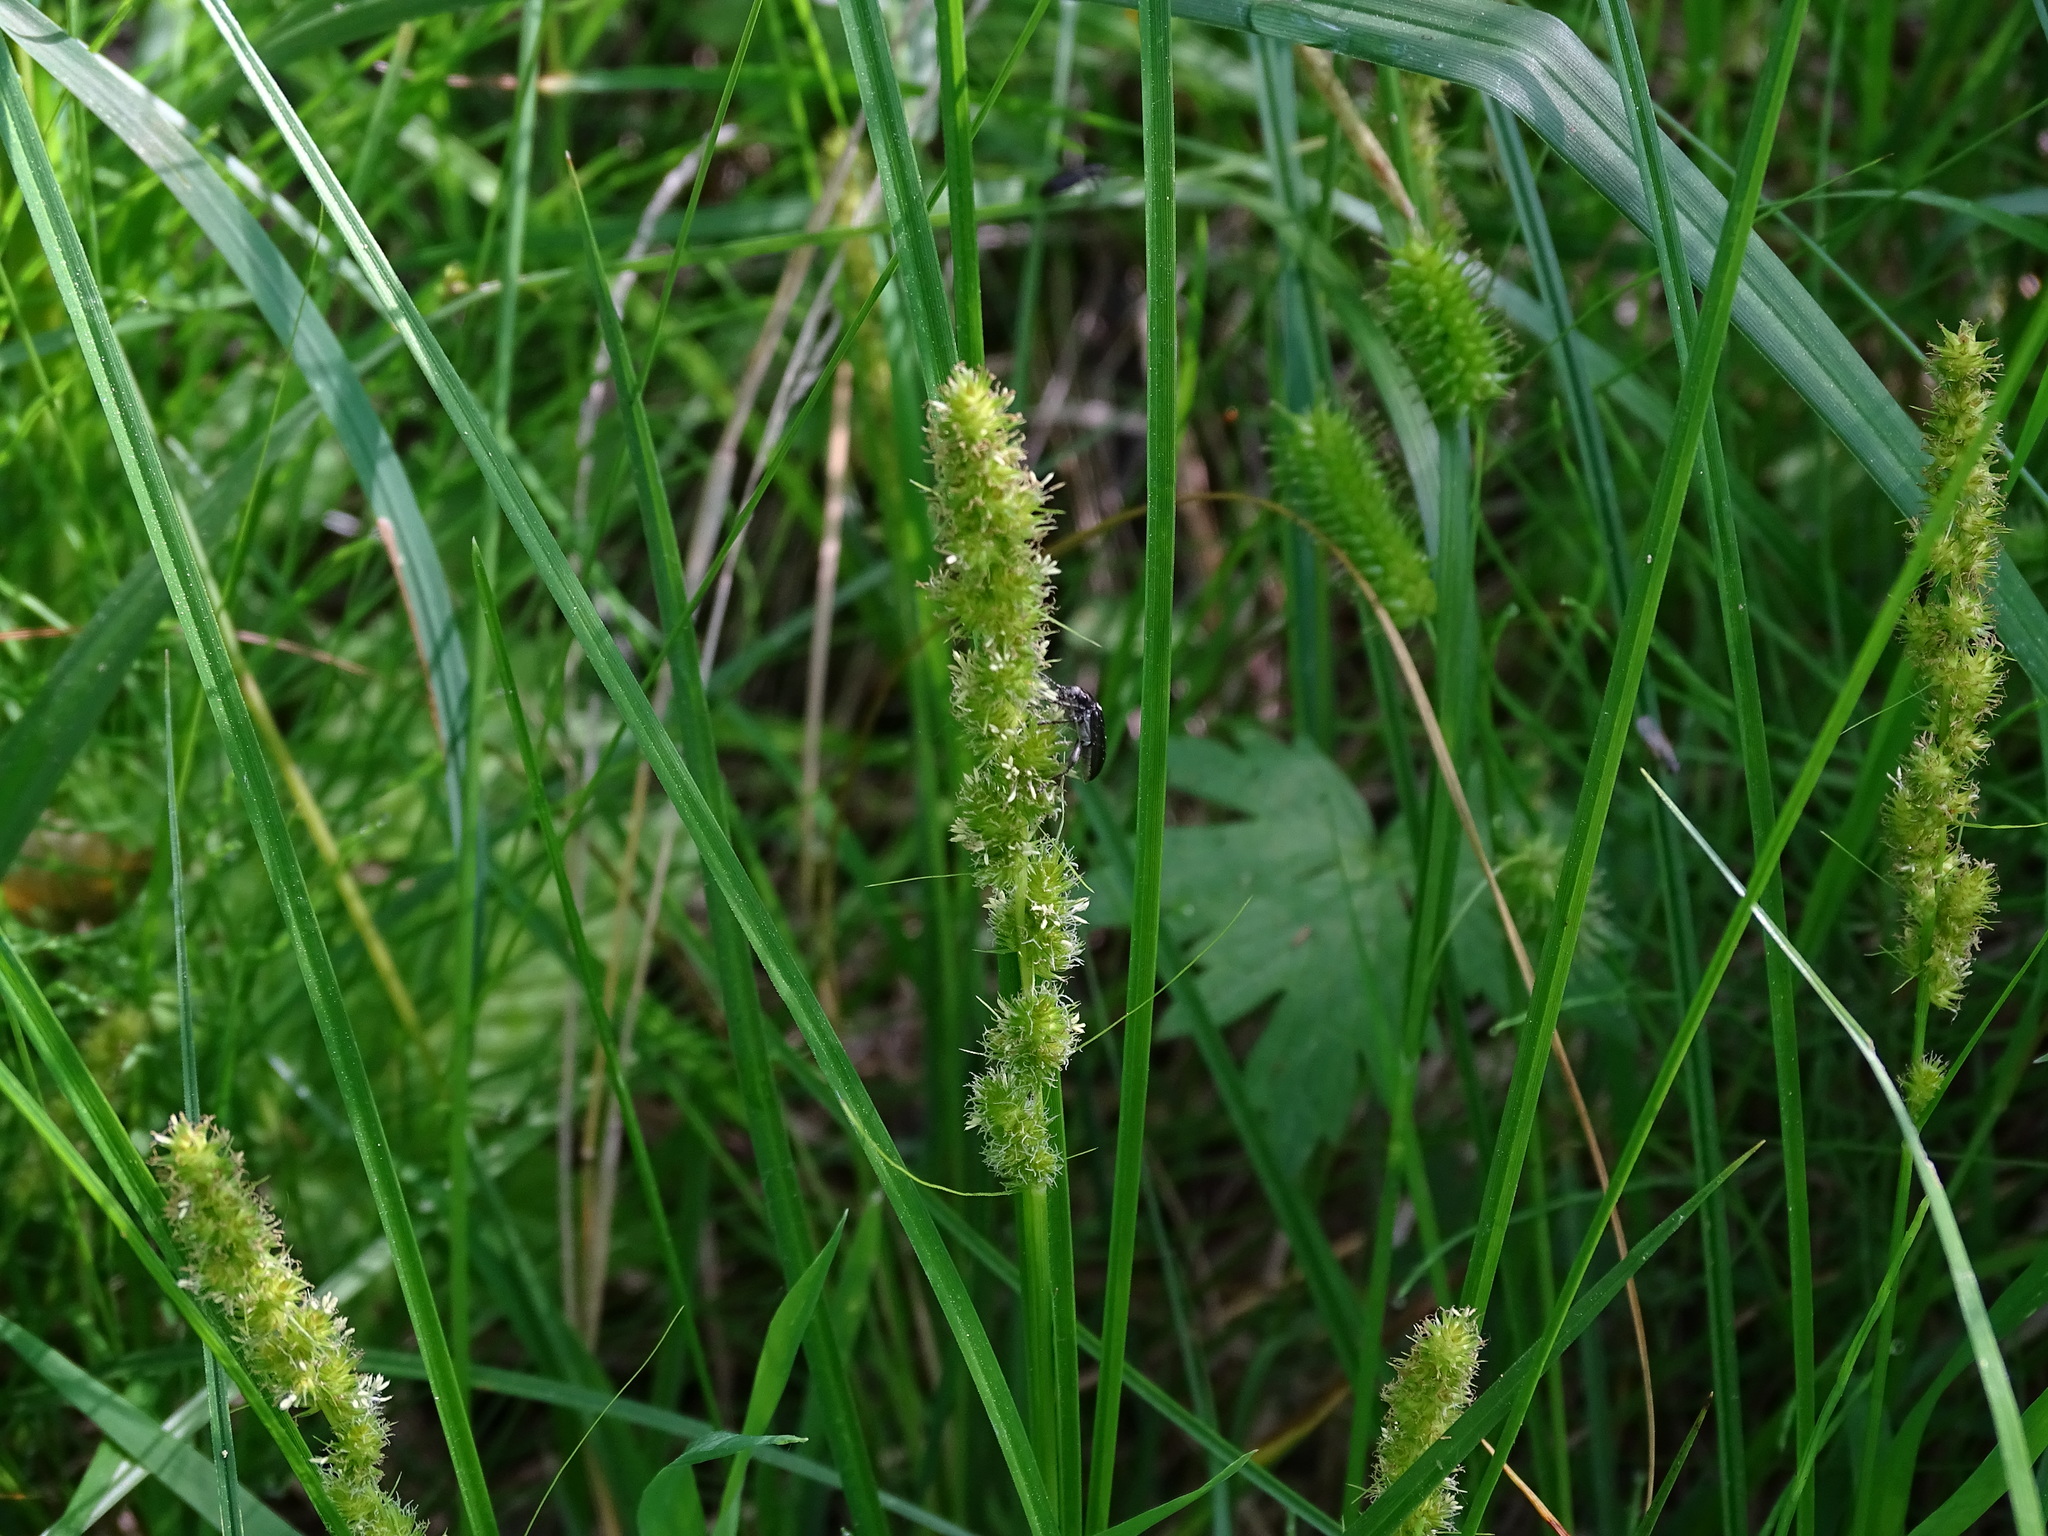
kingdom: Plantae
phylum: Tracheophyta
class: Liliopsida
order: Poales
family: Cyperaceae
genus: Carex
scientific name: Carex vulpinoidea
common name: American fox-sedge
